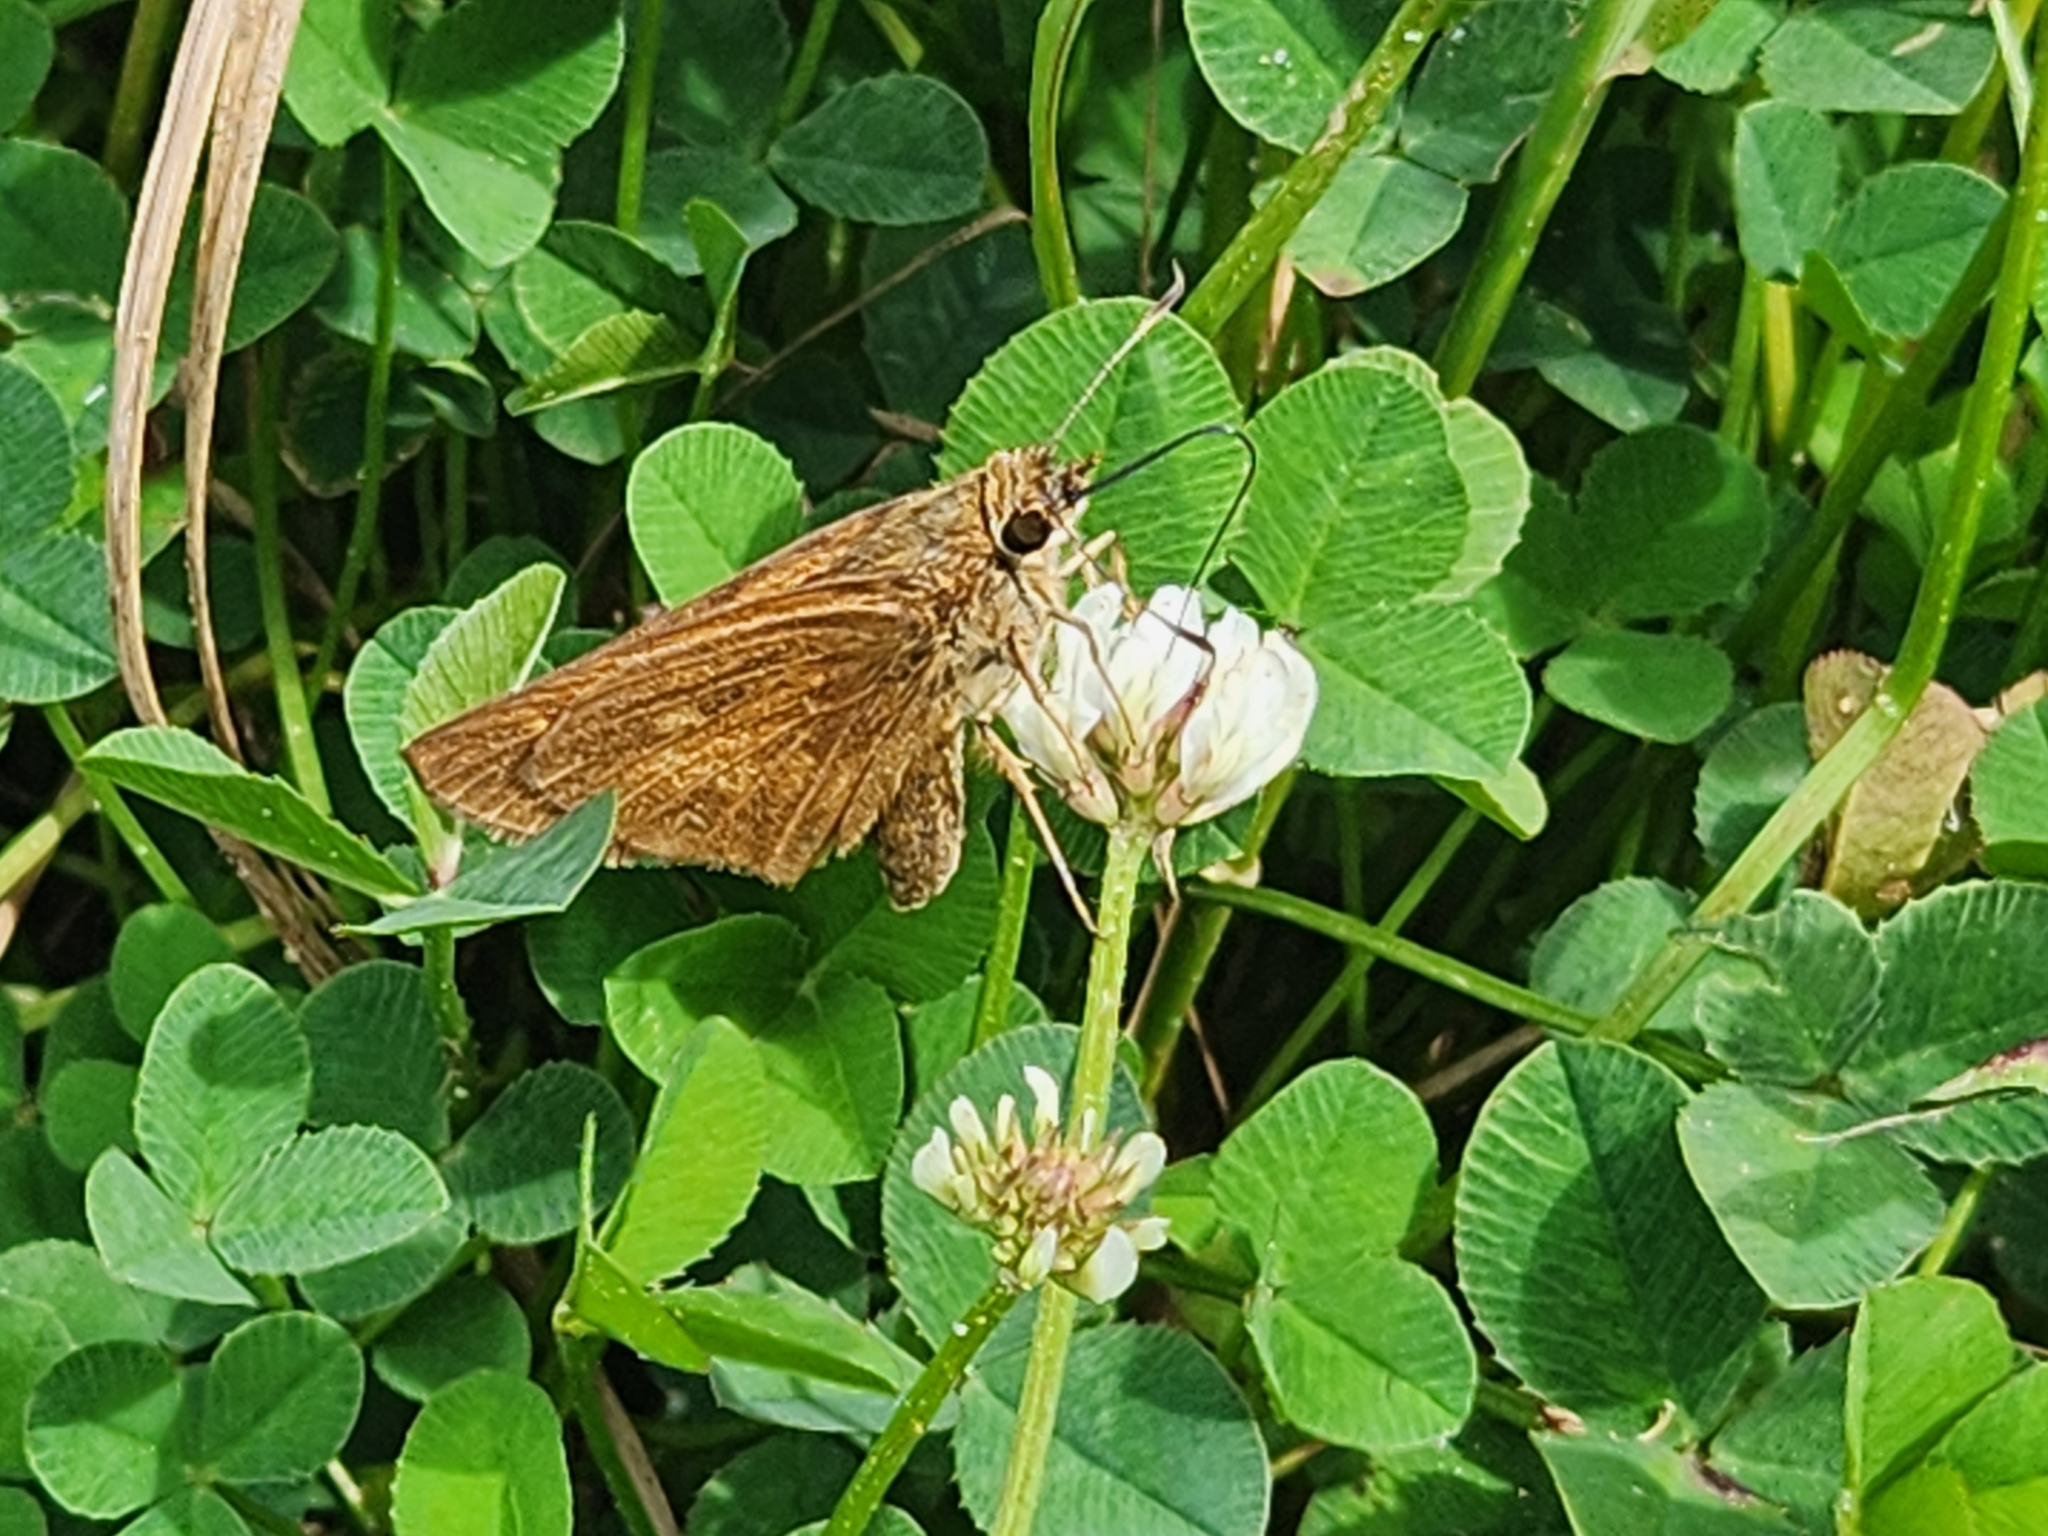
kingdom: Animalia
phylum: Arthropoda
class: Insecta
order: Lepidoptera
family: Hesperiidae
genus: Poanes
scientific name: Poanes viator
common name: Broad-winged skipper
